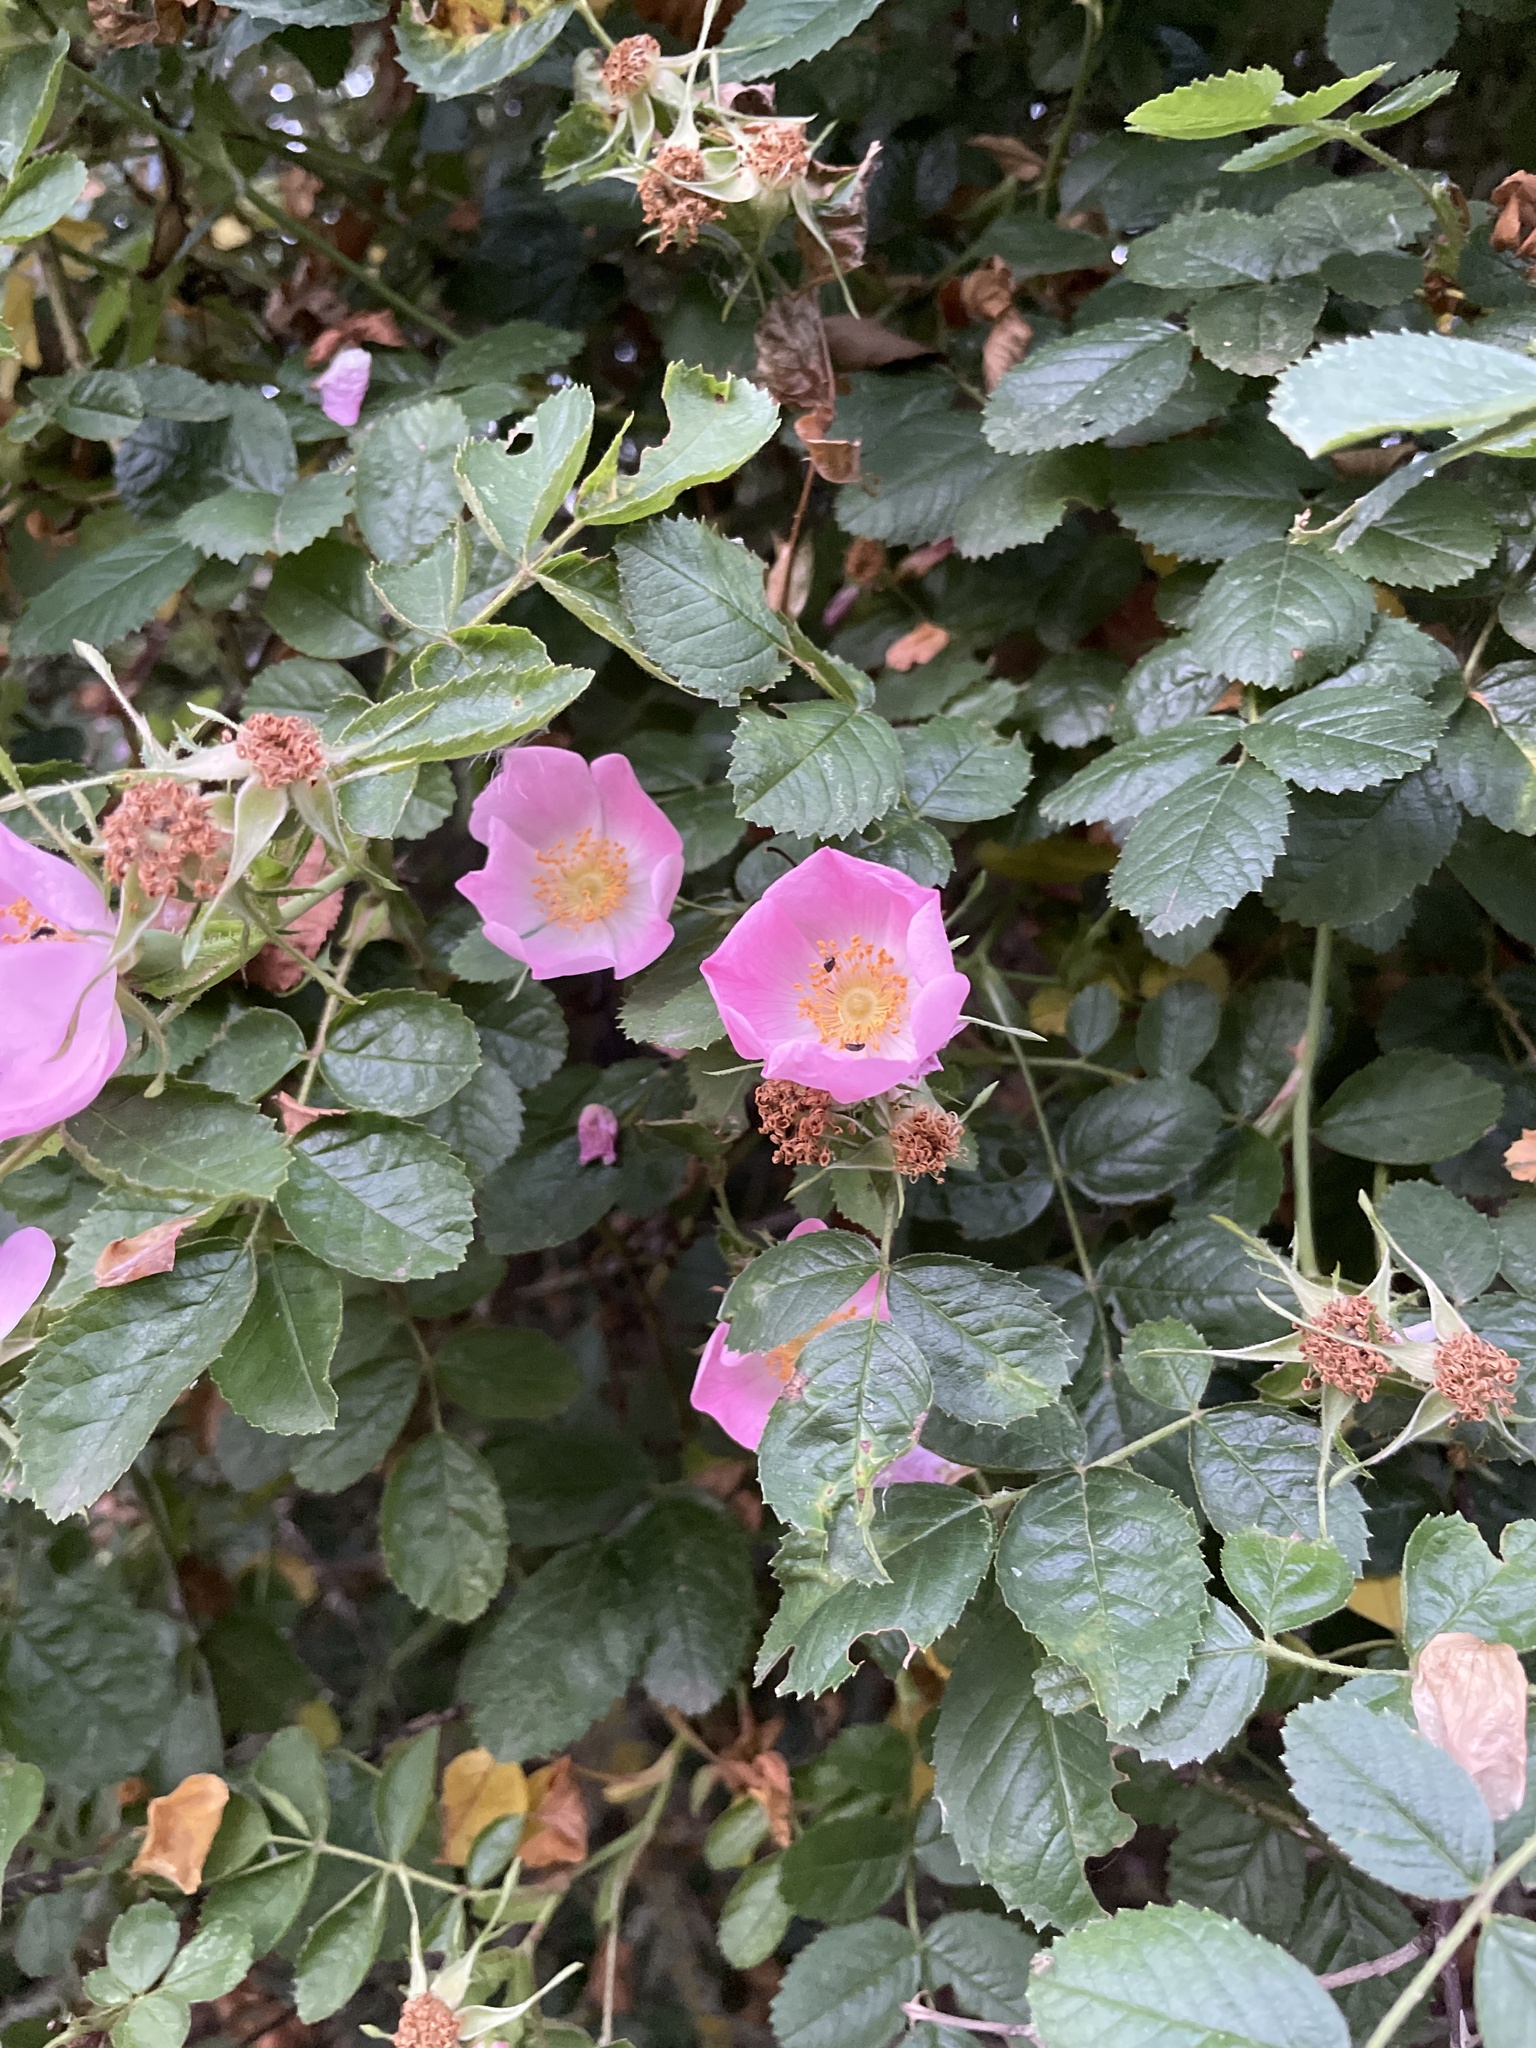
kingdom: Plantae
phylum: Tracheophyta
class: Magnoliopsida
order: Rosales
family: Rosaceae
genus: Rosa
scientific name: Rosa rubiginosa
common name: Sweet-briar
